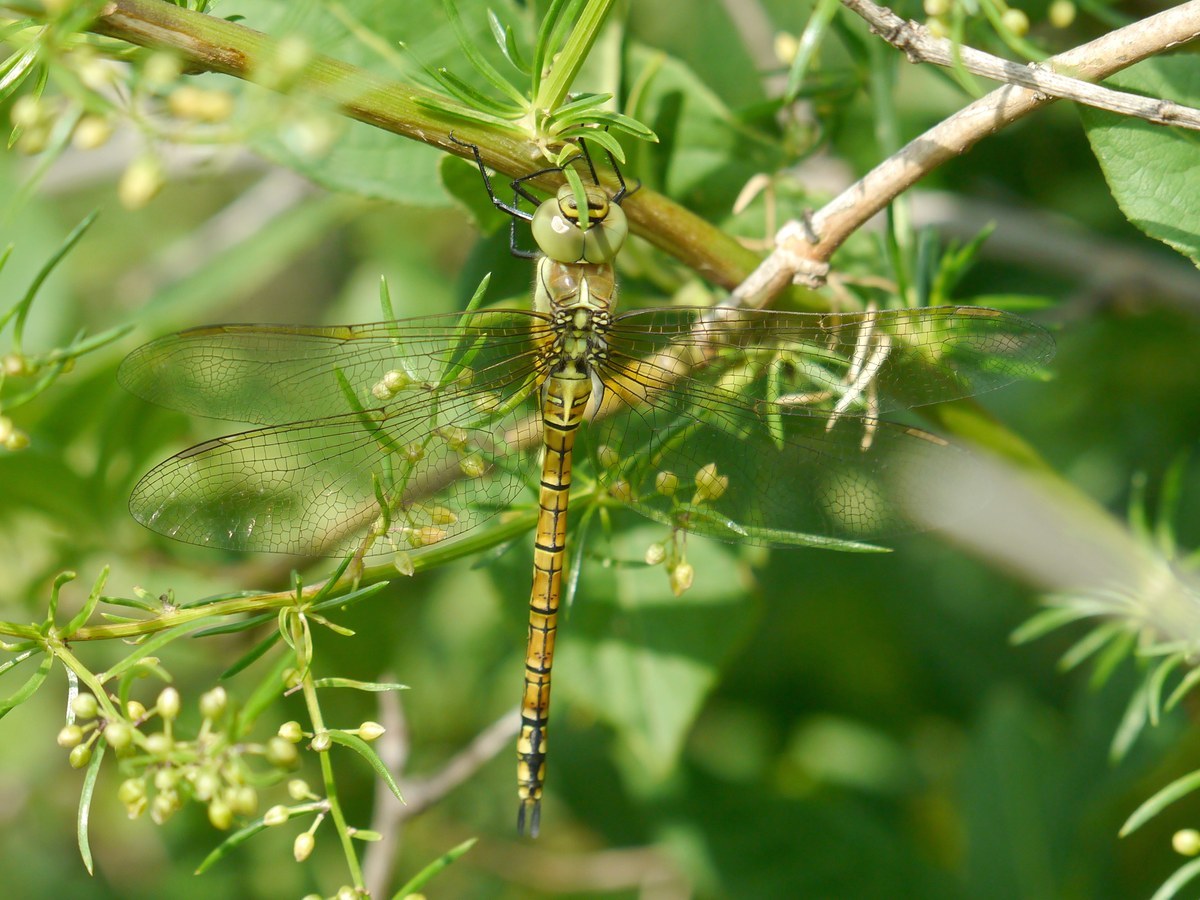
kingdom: Animalia
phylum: Arthropoda
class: Insecta
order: Odonata
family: Aeshnidae
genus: Aeshna
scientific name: Aeshna affinis
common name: Southern migrant hawker
